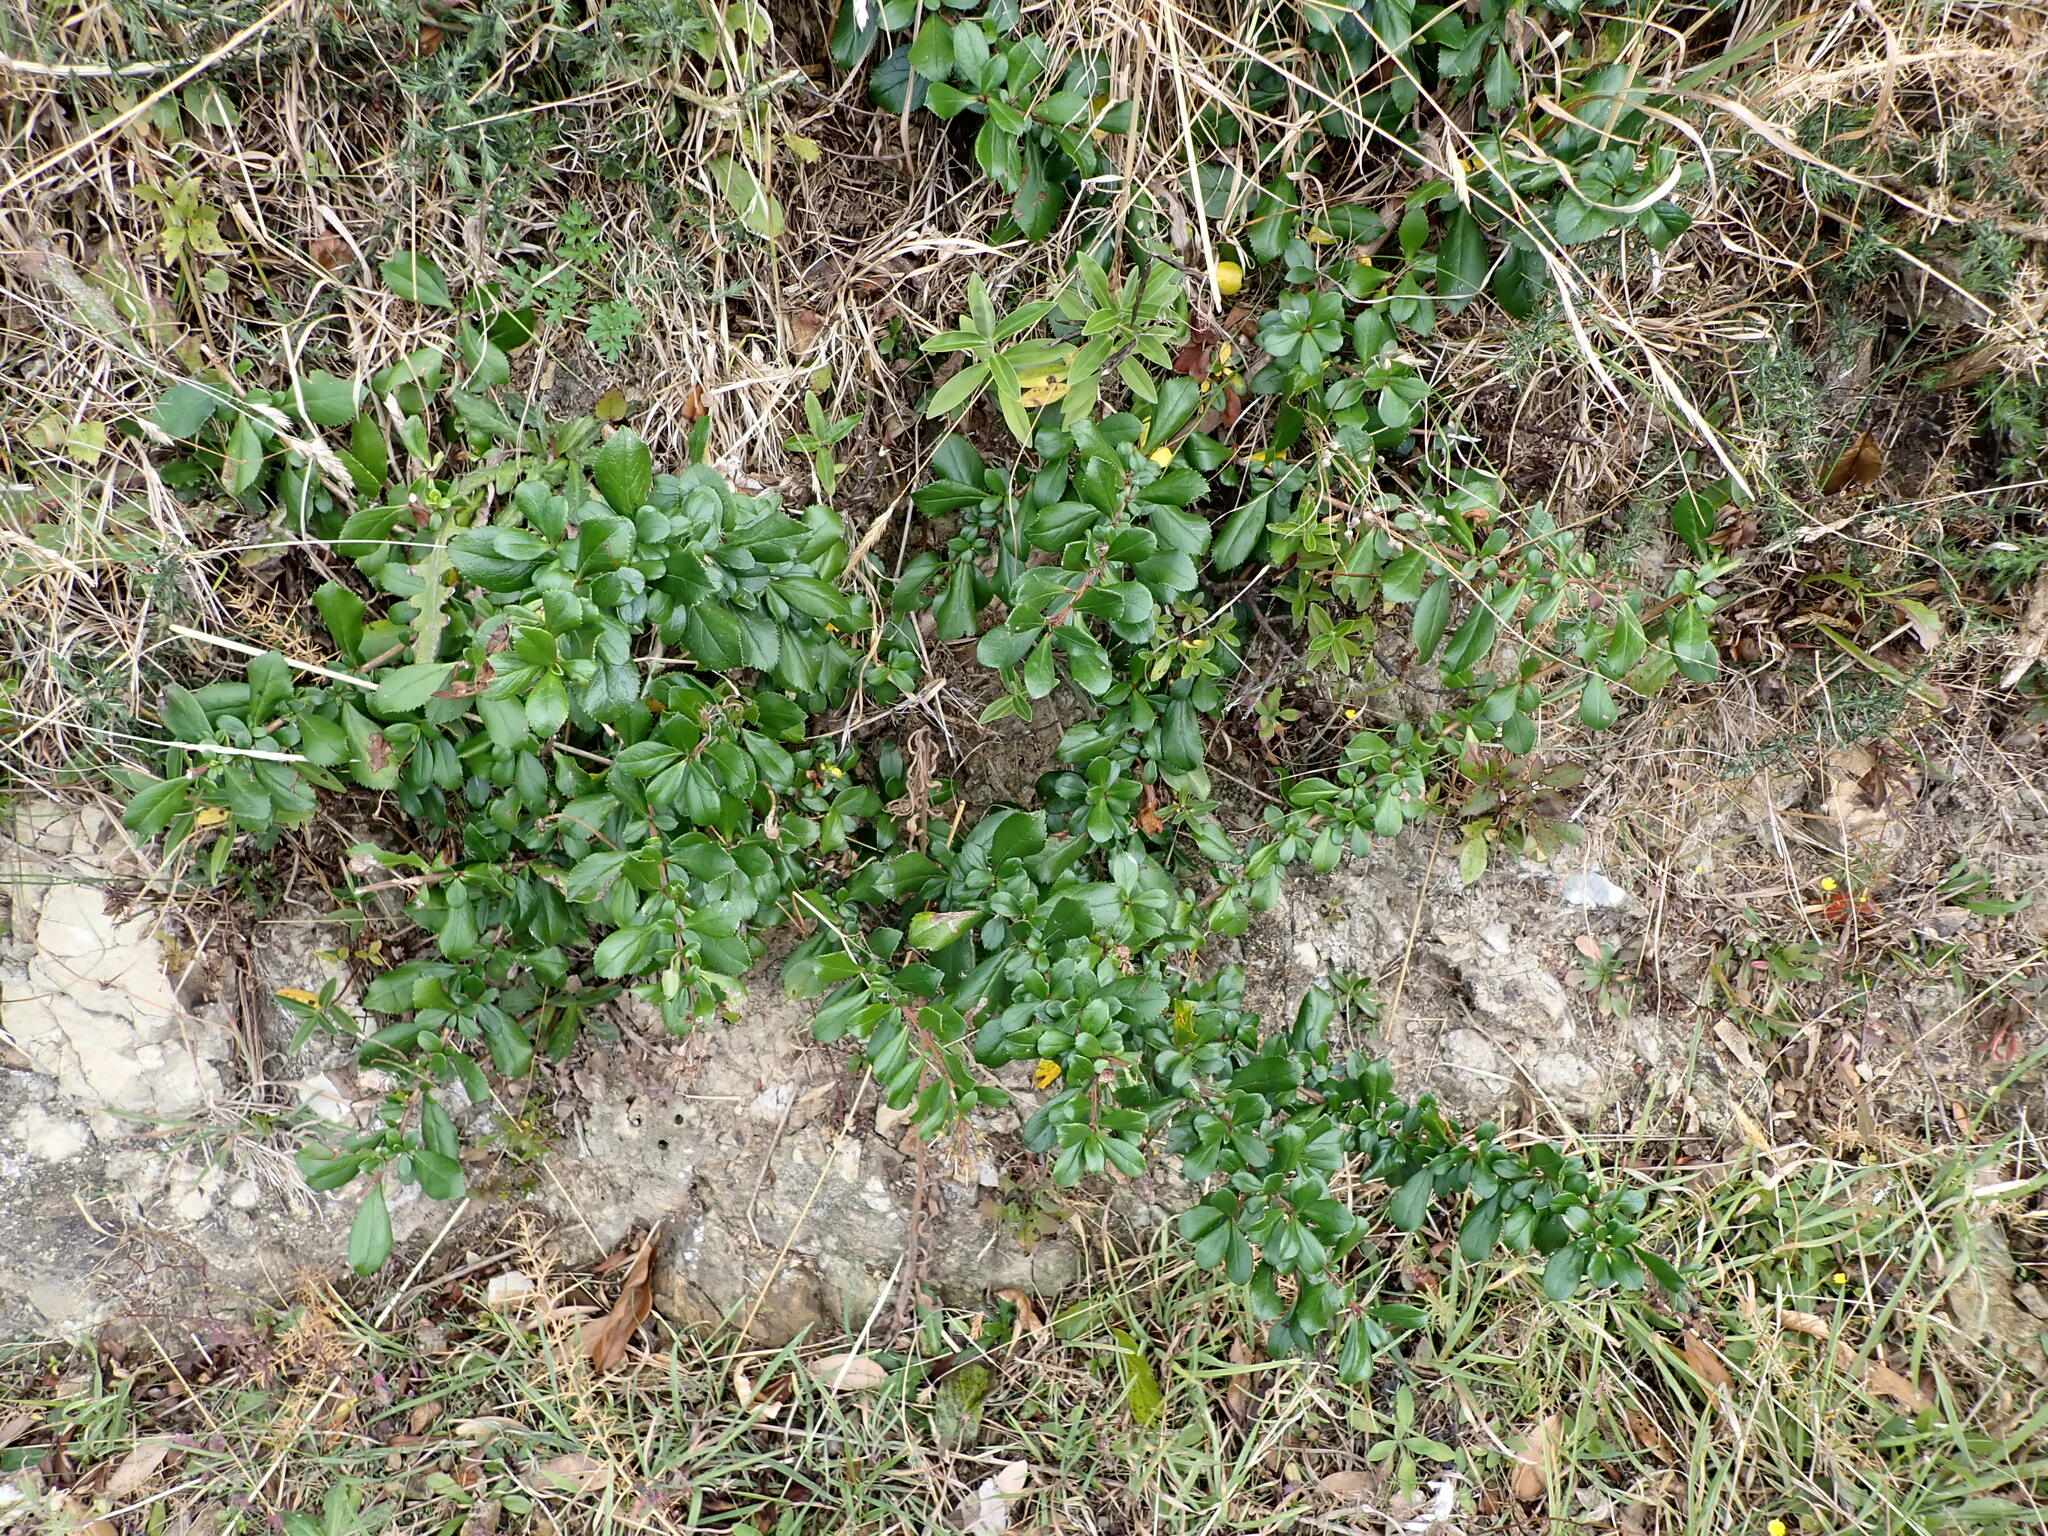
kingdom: Plantae
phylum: Tracheophyta
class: Magnoliopsida
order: Escalloniales
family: Escalloniaceae
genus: Escallonia
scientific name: Escallonia rubra
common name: Redclaws
